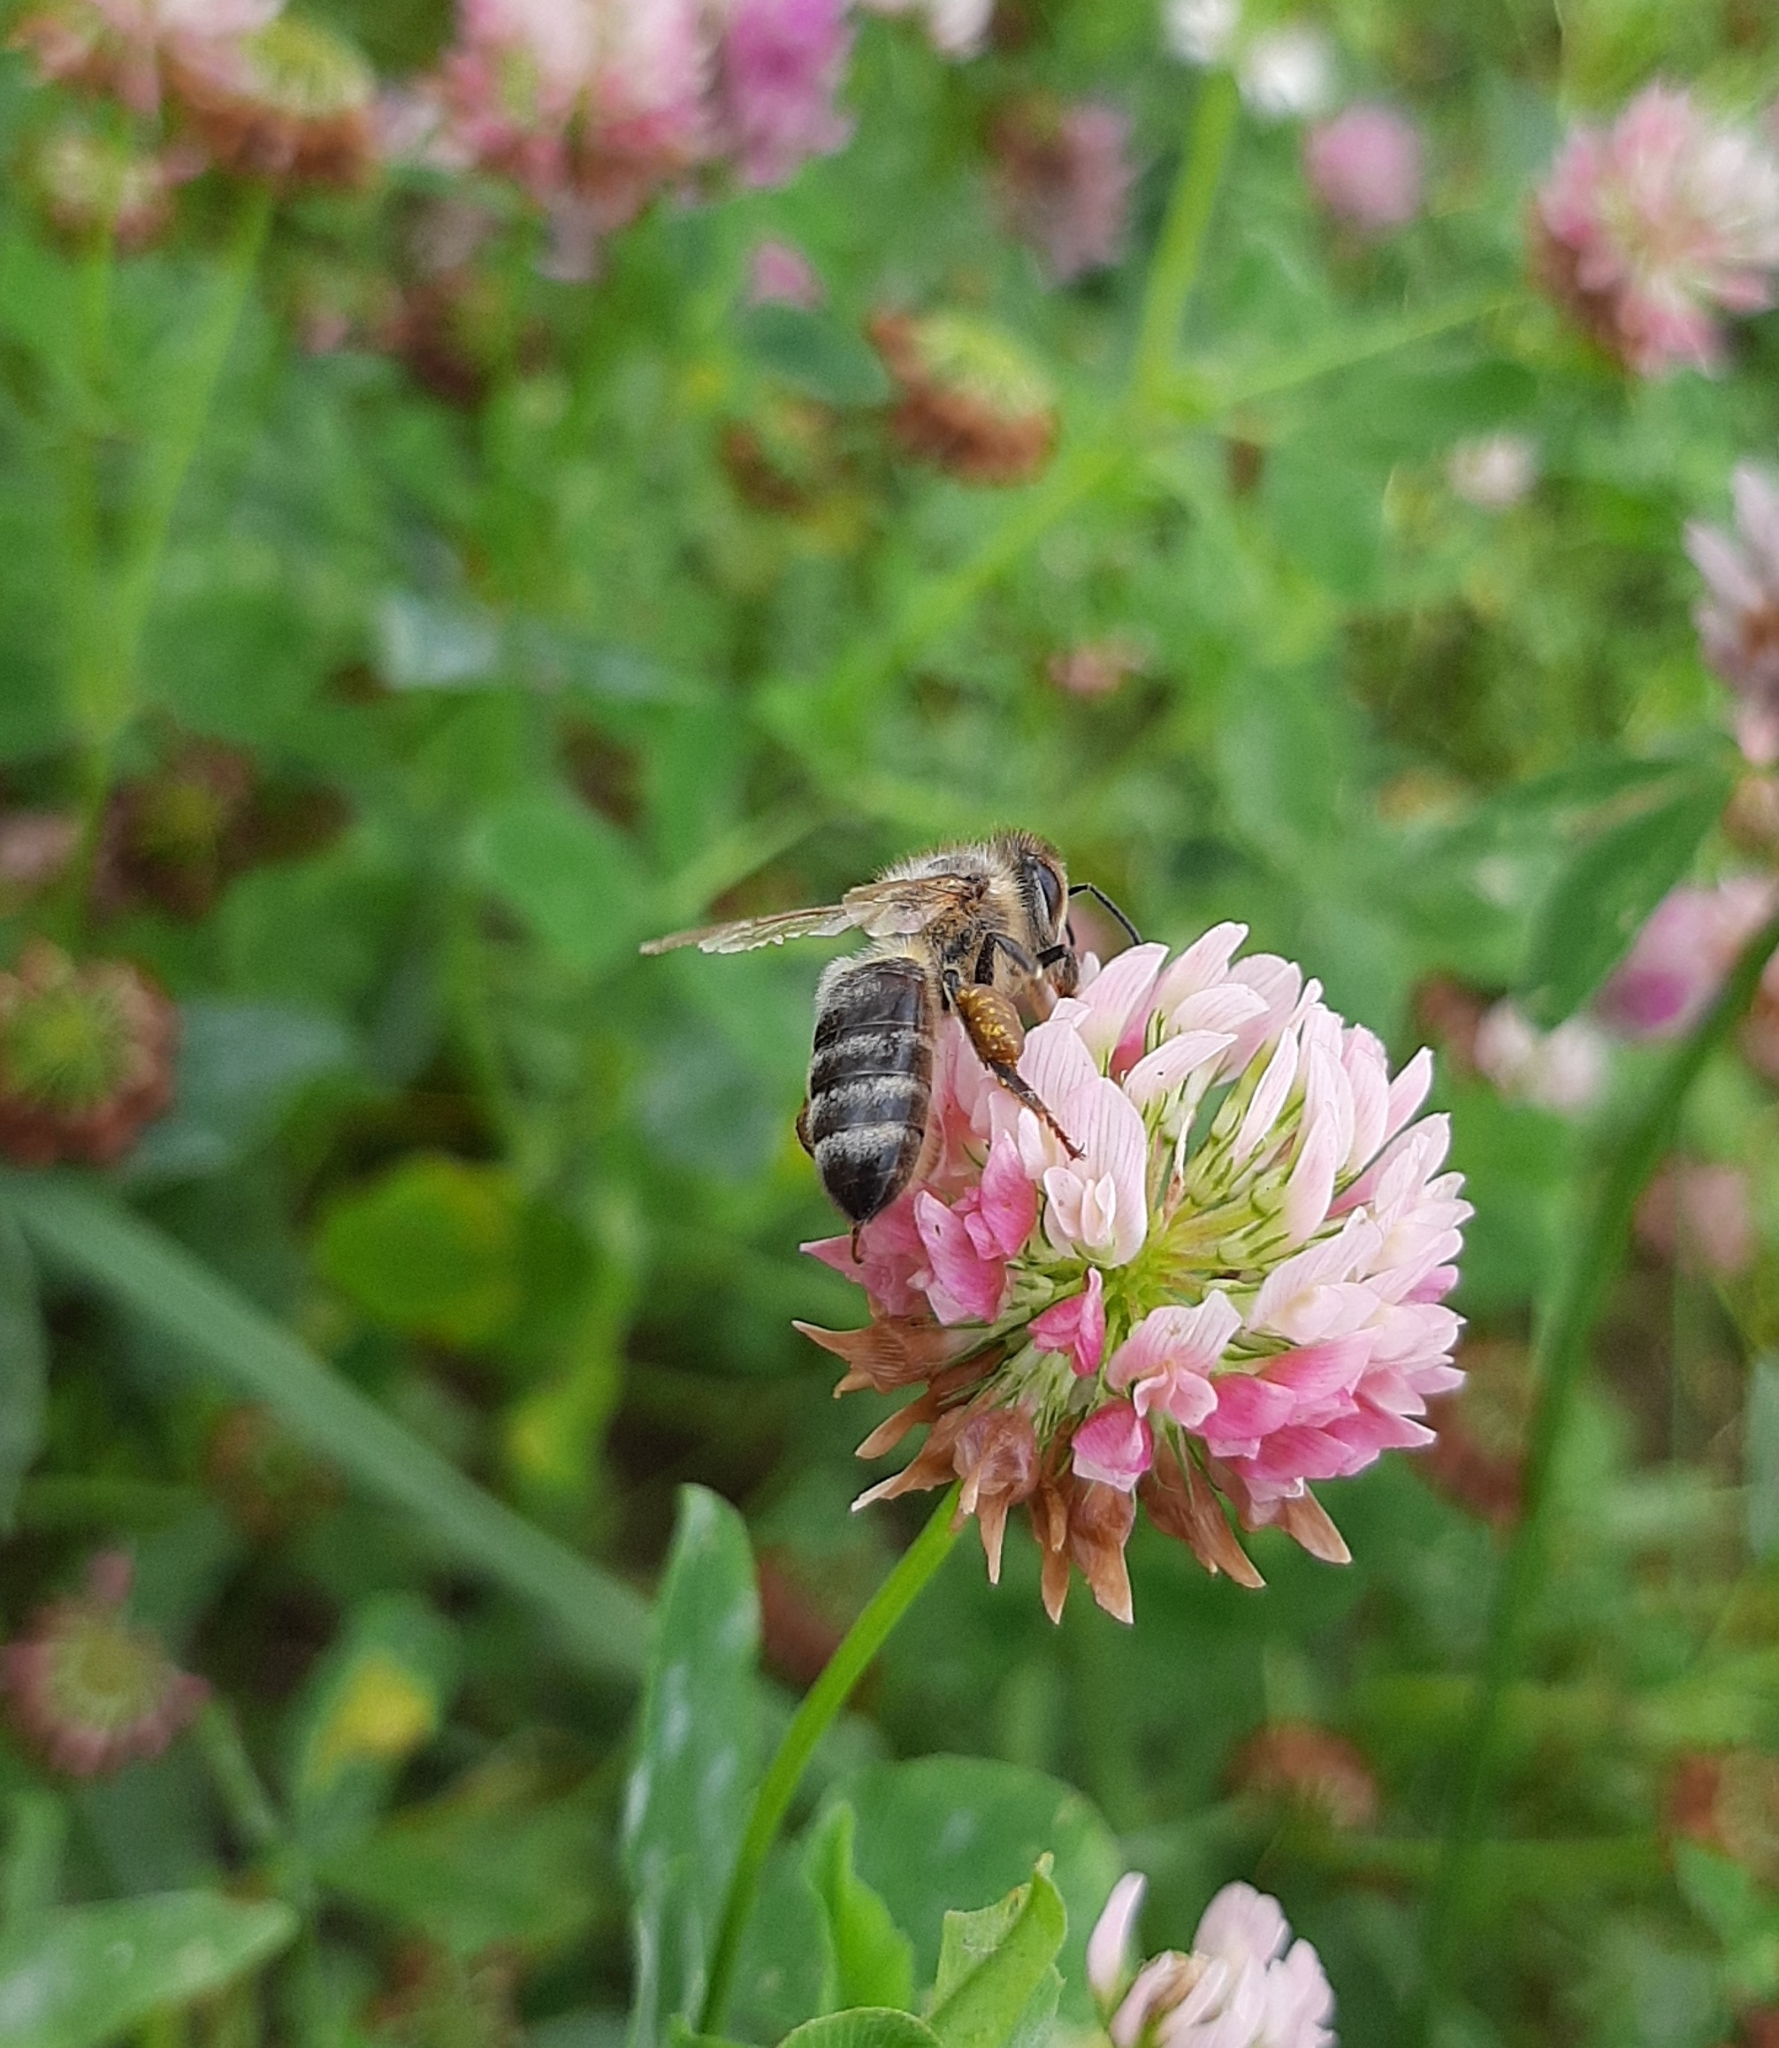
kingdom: Animalia
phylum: Arthropoda
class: Insecta
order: Hymenoptera
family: Apidae
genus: Apis
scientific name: Apis mellifera
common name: Honey bee
